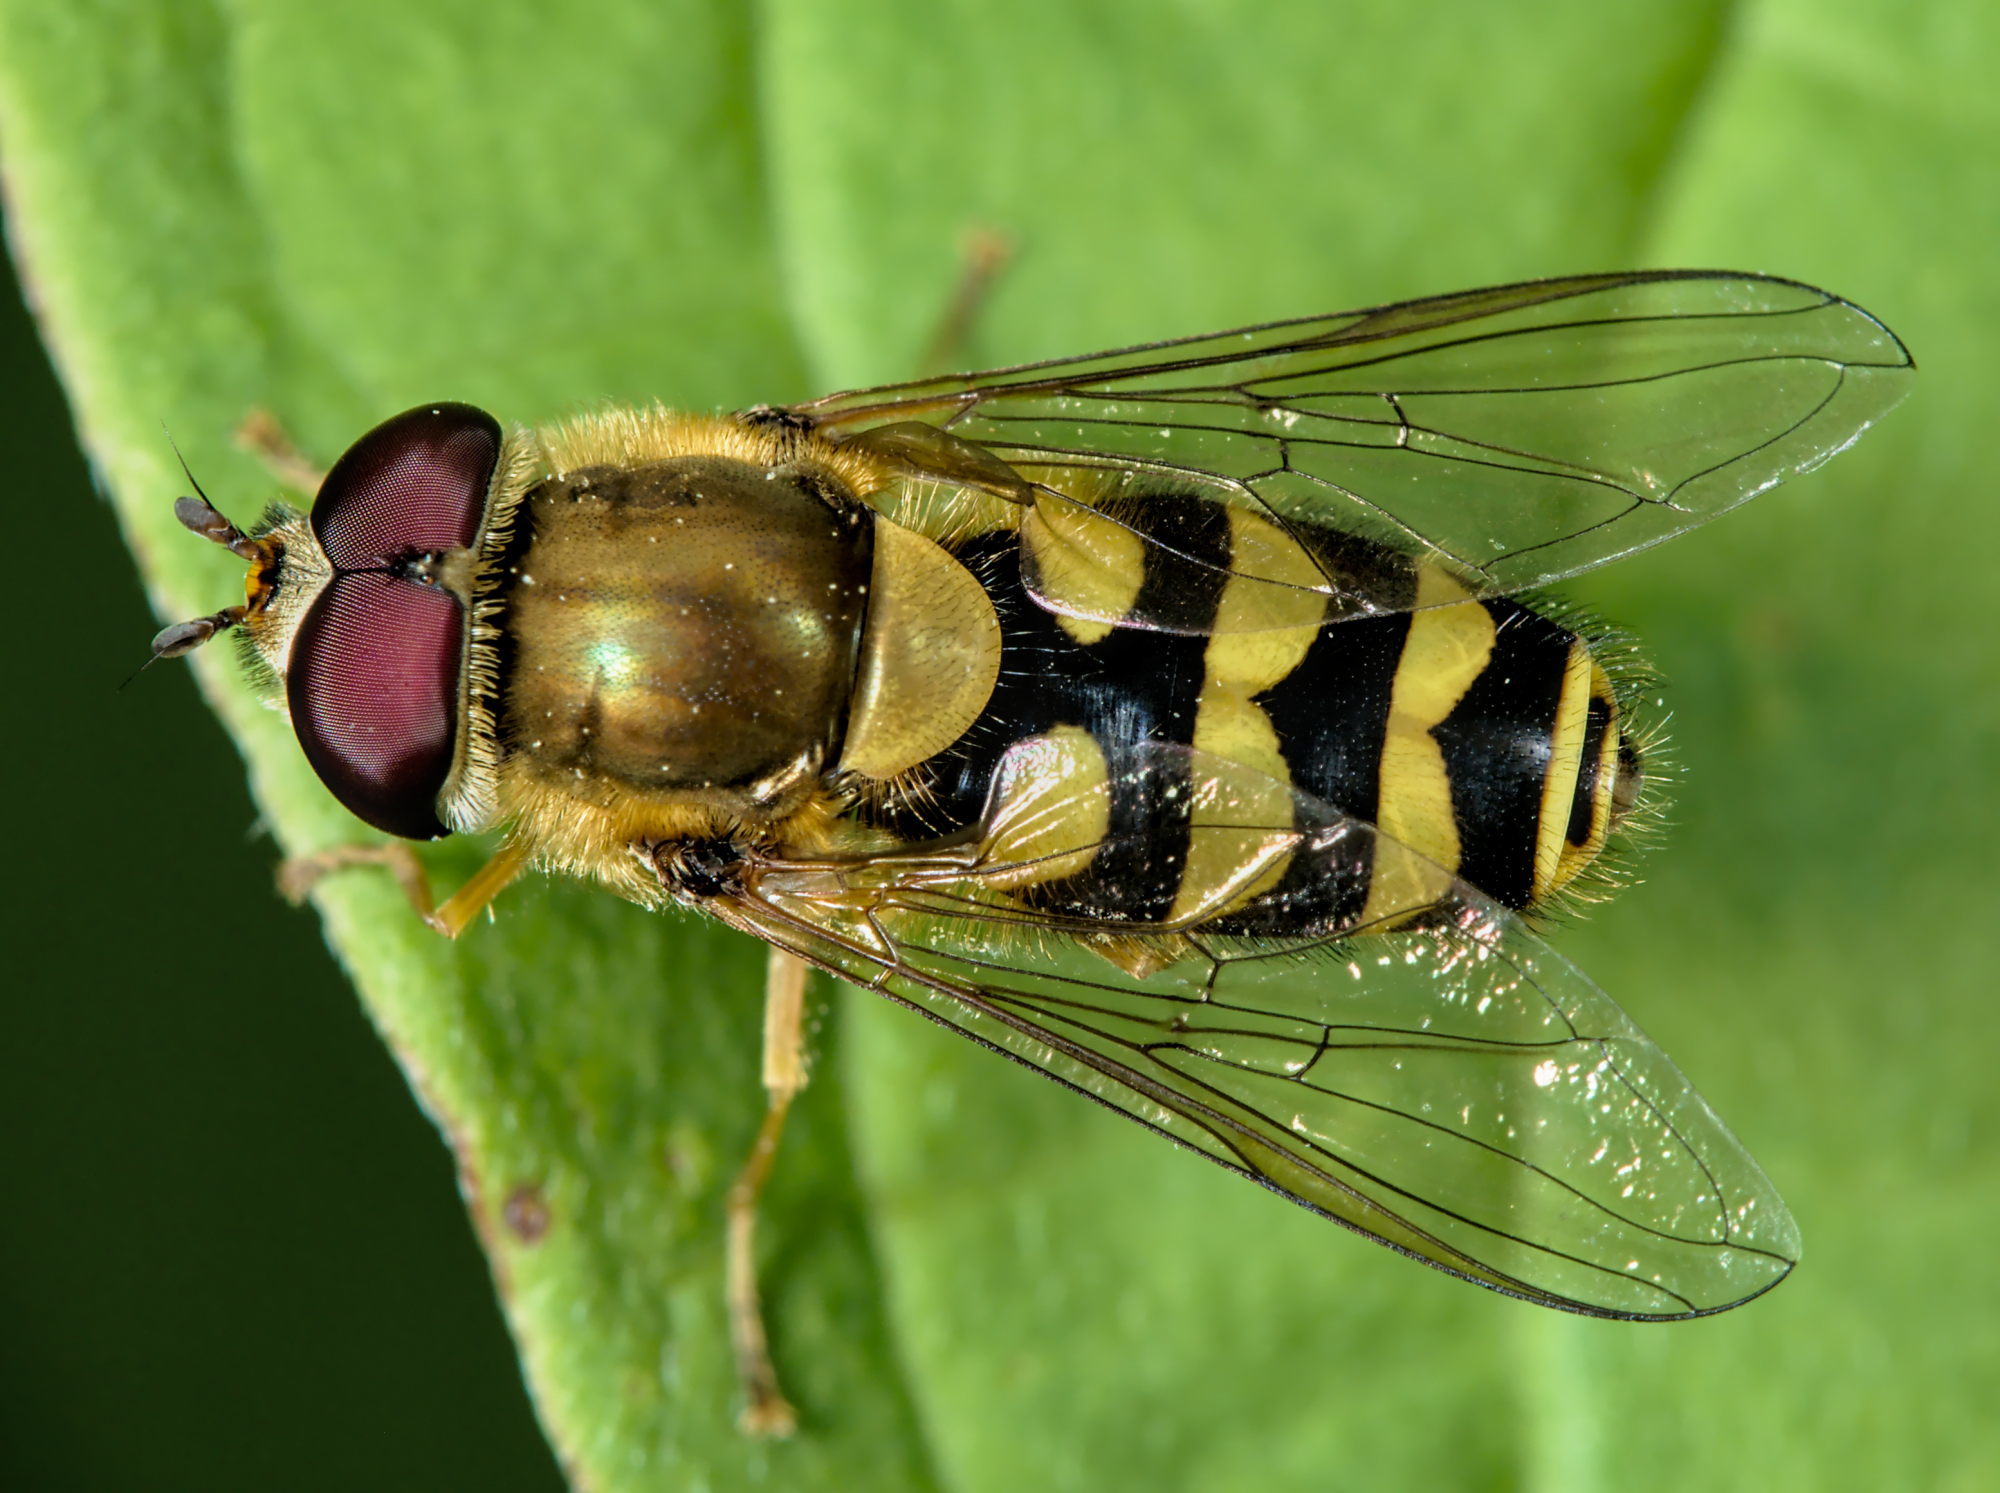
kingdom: Animalia
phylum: Arthropoda
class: Insecta
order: Diptera
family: Syrphidae
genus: Syrphus
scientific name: Syrphus
